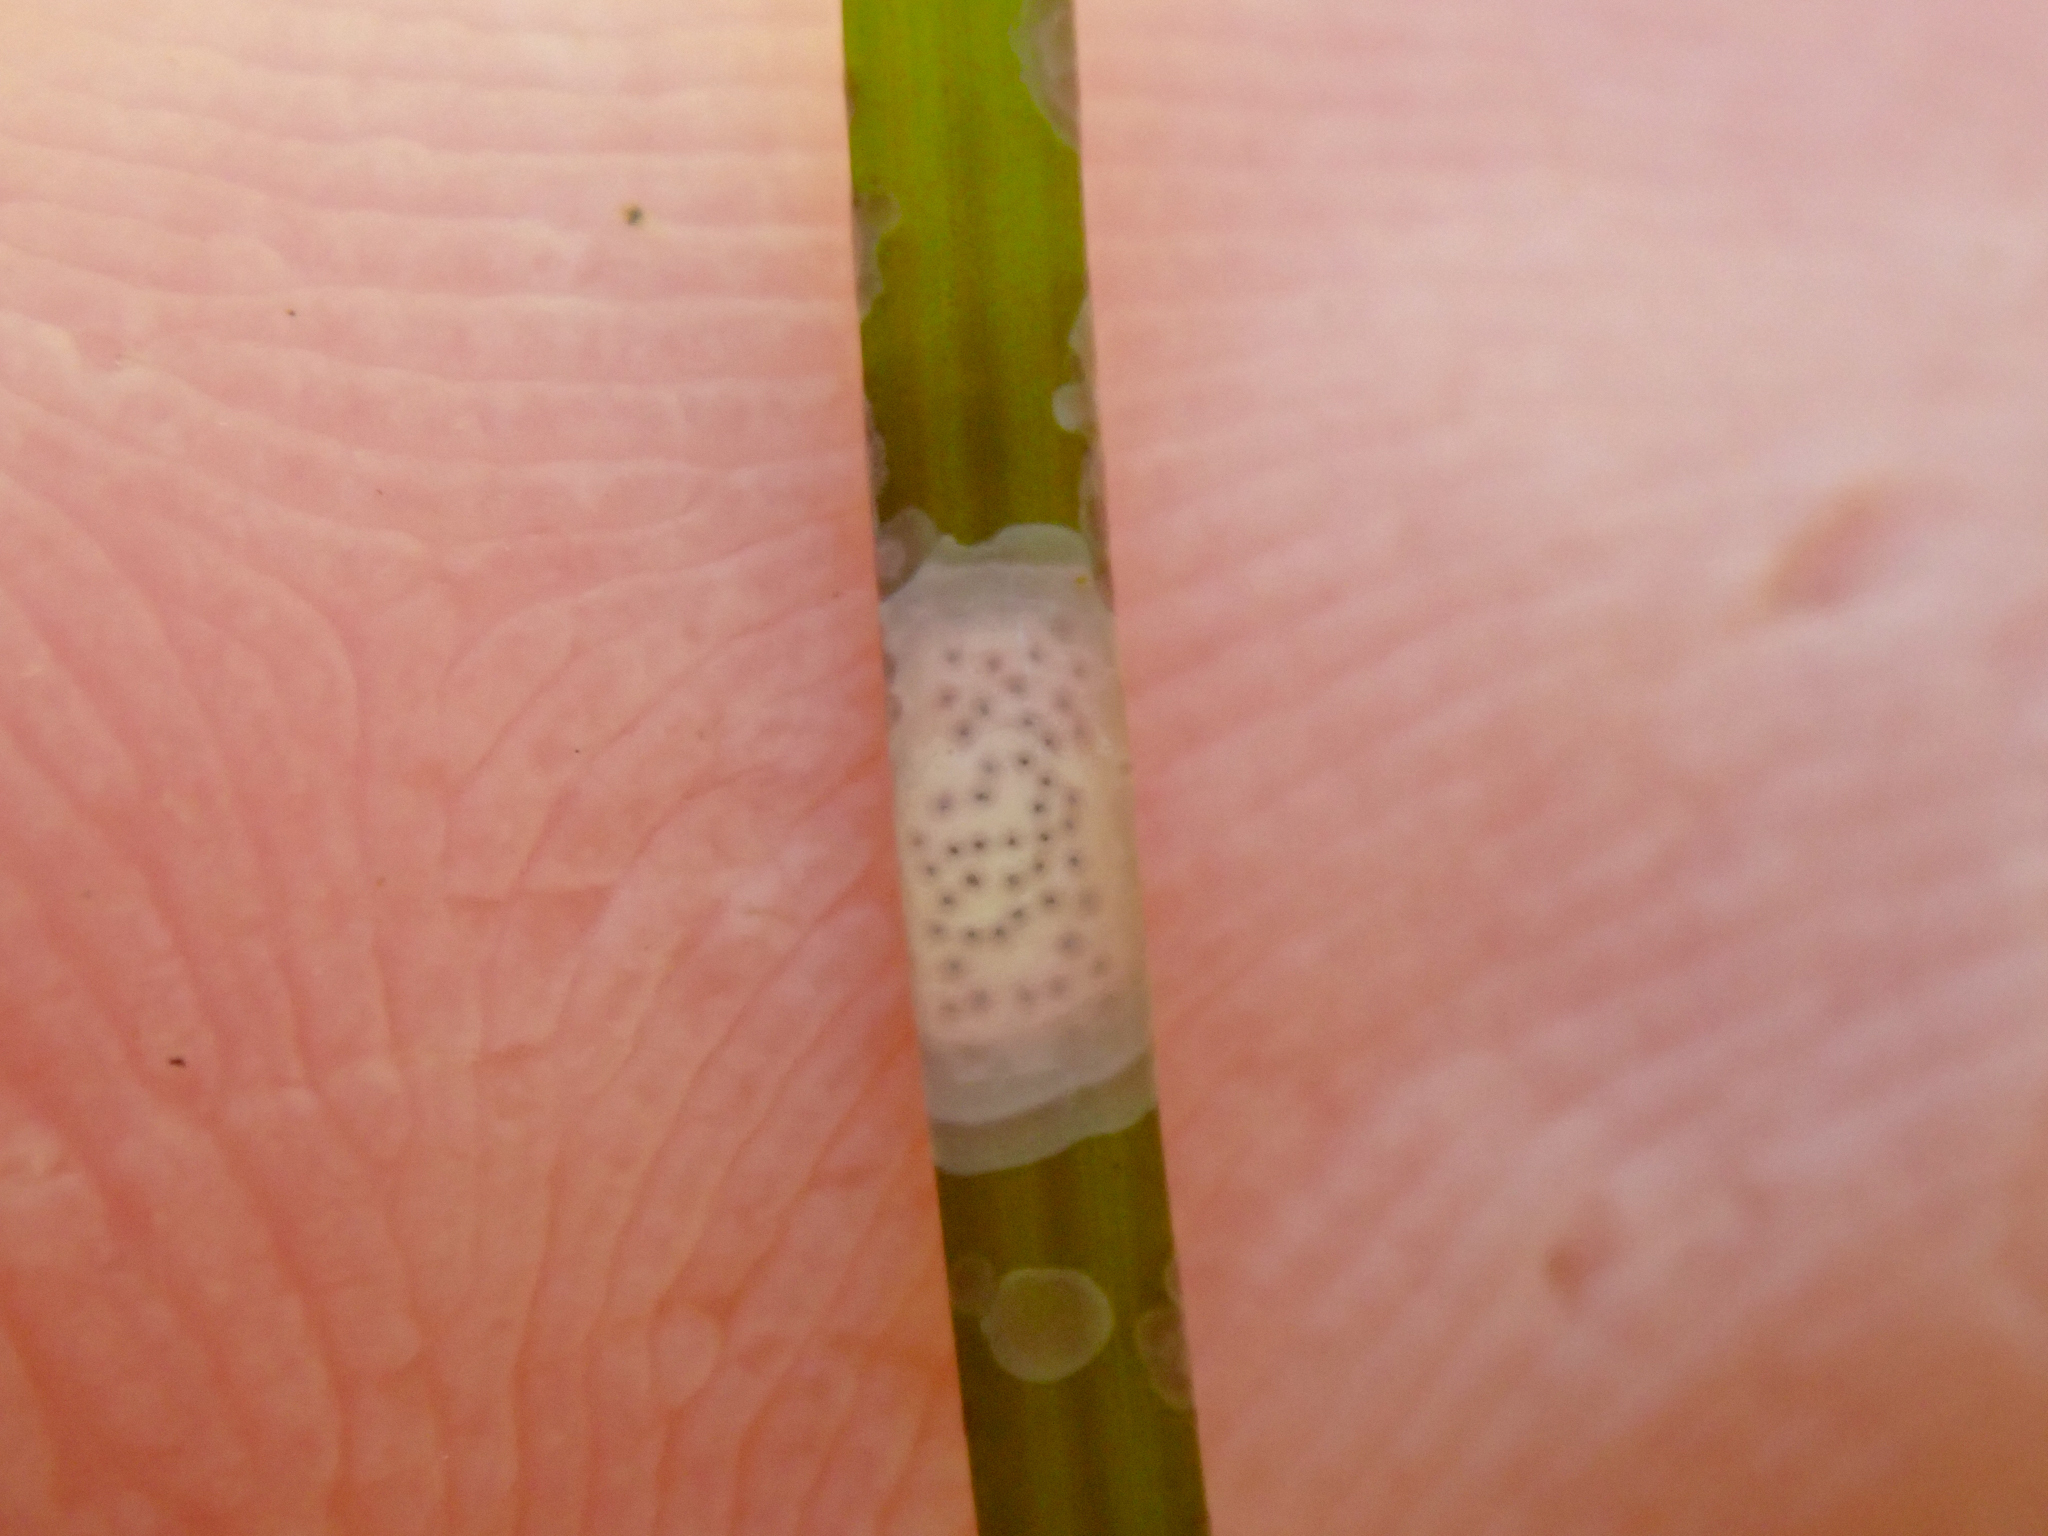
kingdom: Plantae
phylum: Rhodophyta
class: Florideophyceae
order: Corallinales
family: Hapalidiaceae
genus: Melobesia
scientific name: Melobesia mediocris
